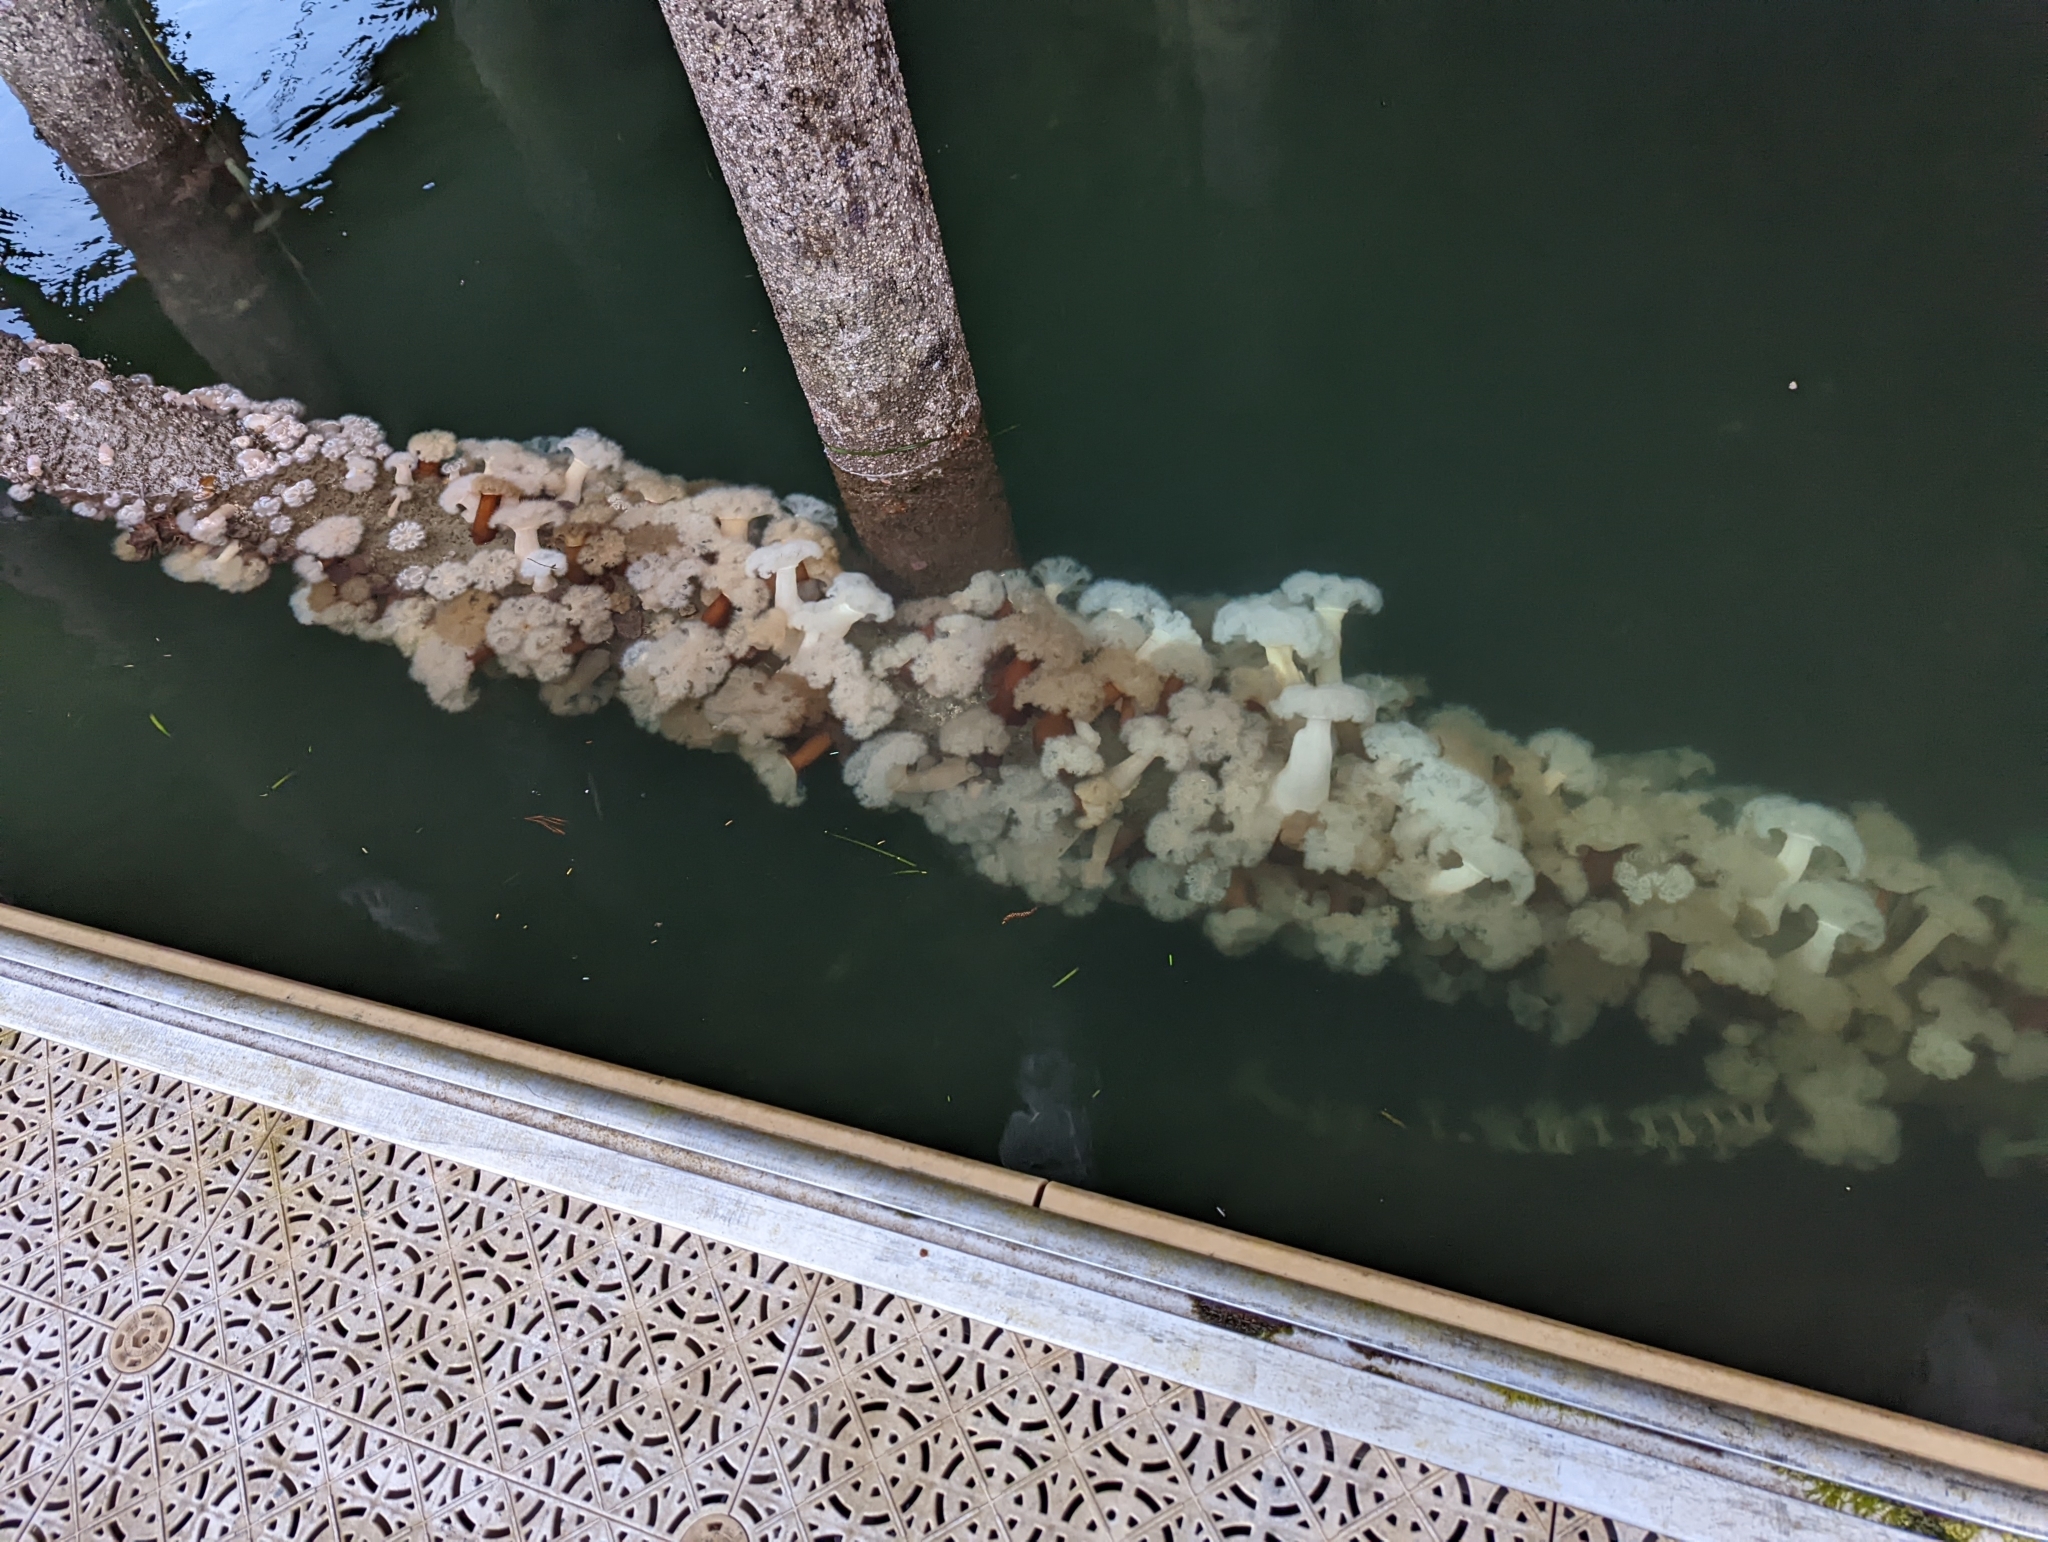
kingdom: Animalia
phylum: Cnidaria
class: Anthozoa
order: Actiniaria
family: Metridiidae
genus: Metridium
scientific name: Metridium farcimen
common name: Gigantic anemone
